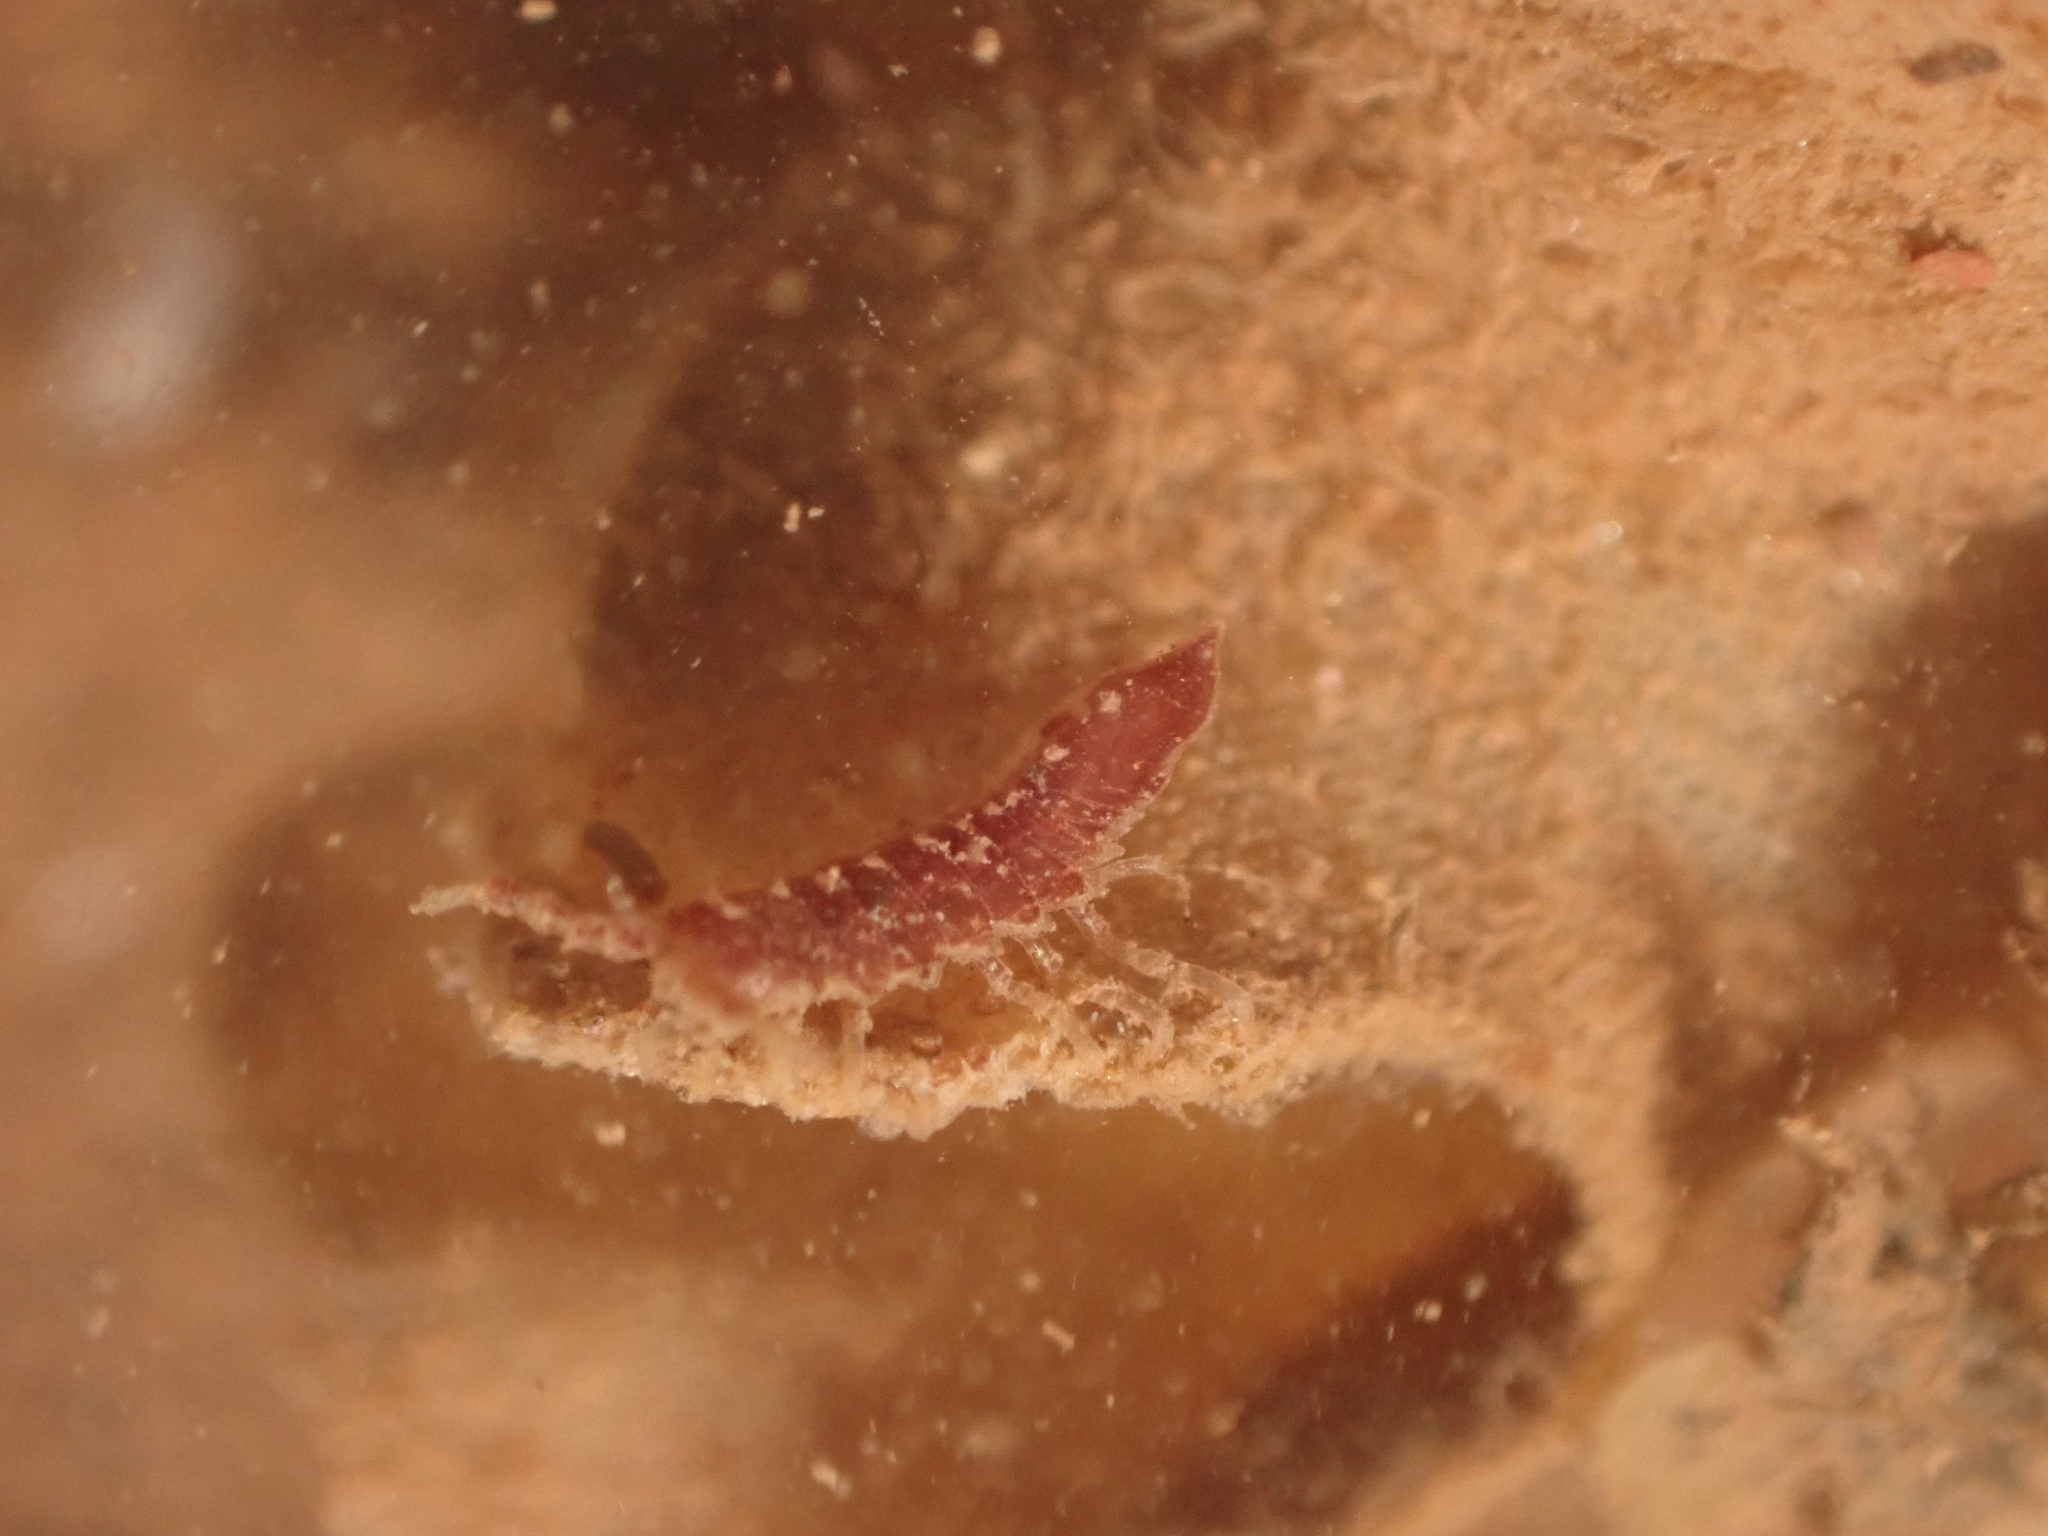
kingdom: Animalia
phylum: Arthropoda
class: Malacostraca
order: Isopoda
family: Idoteidae
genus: Idotea
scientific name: Idotea phosphorea
